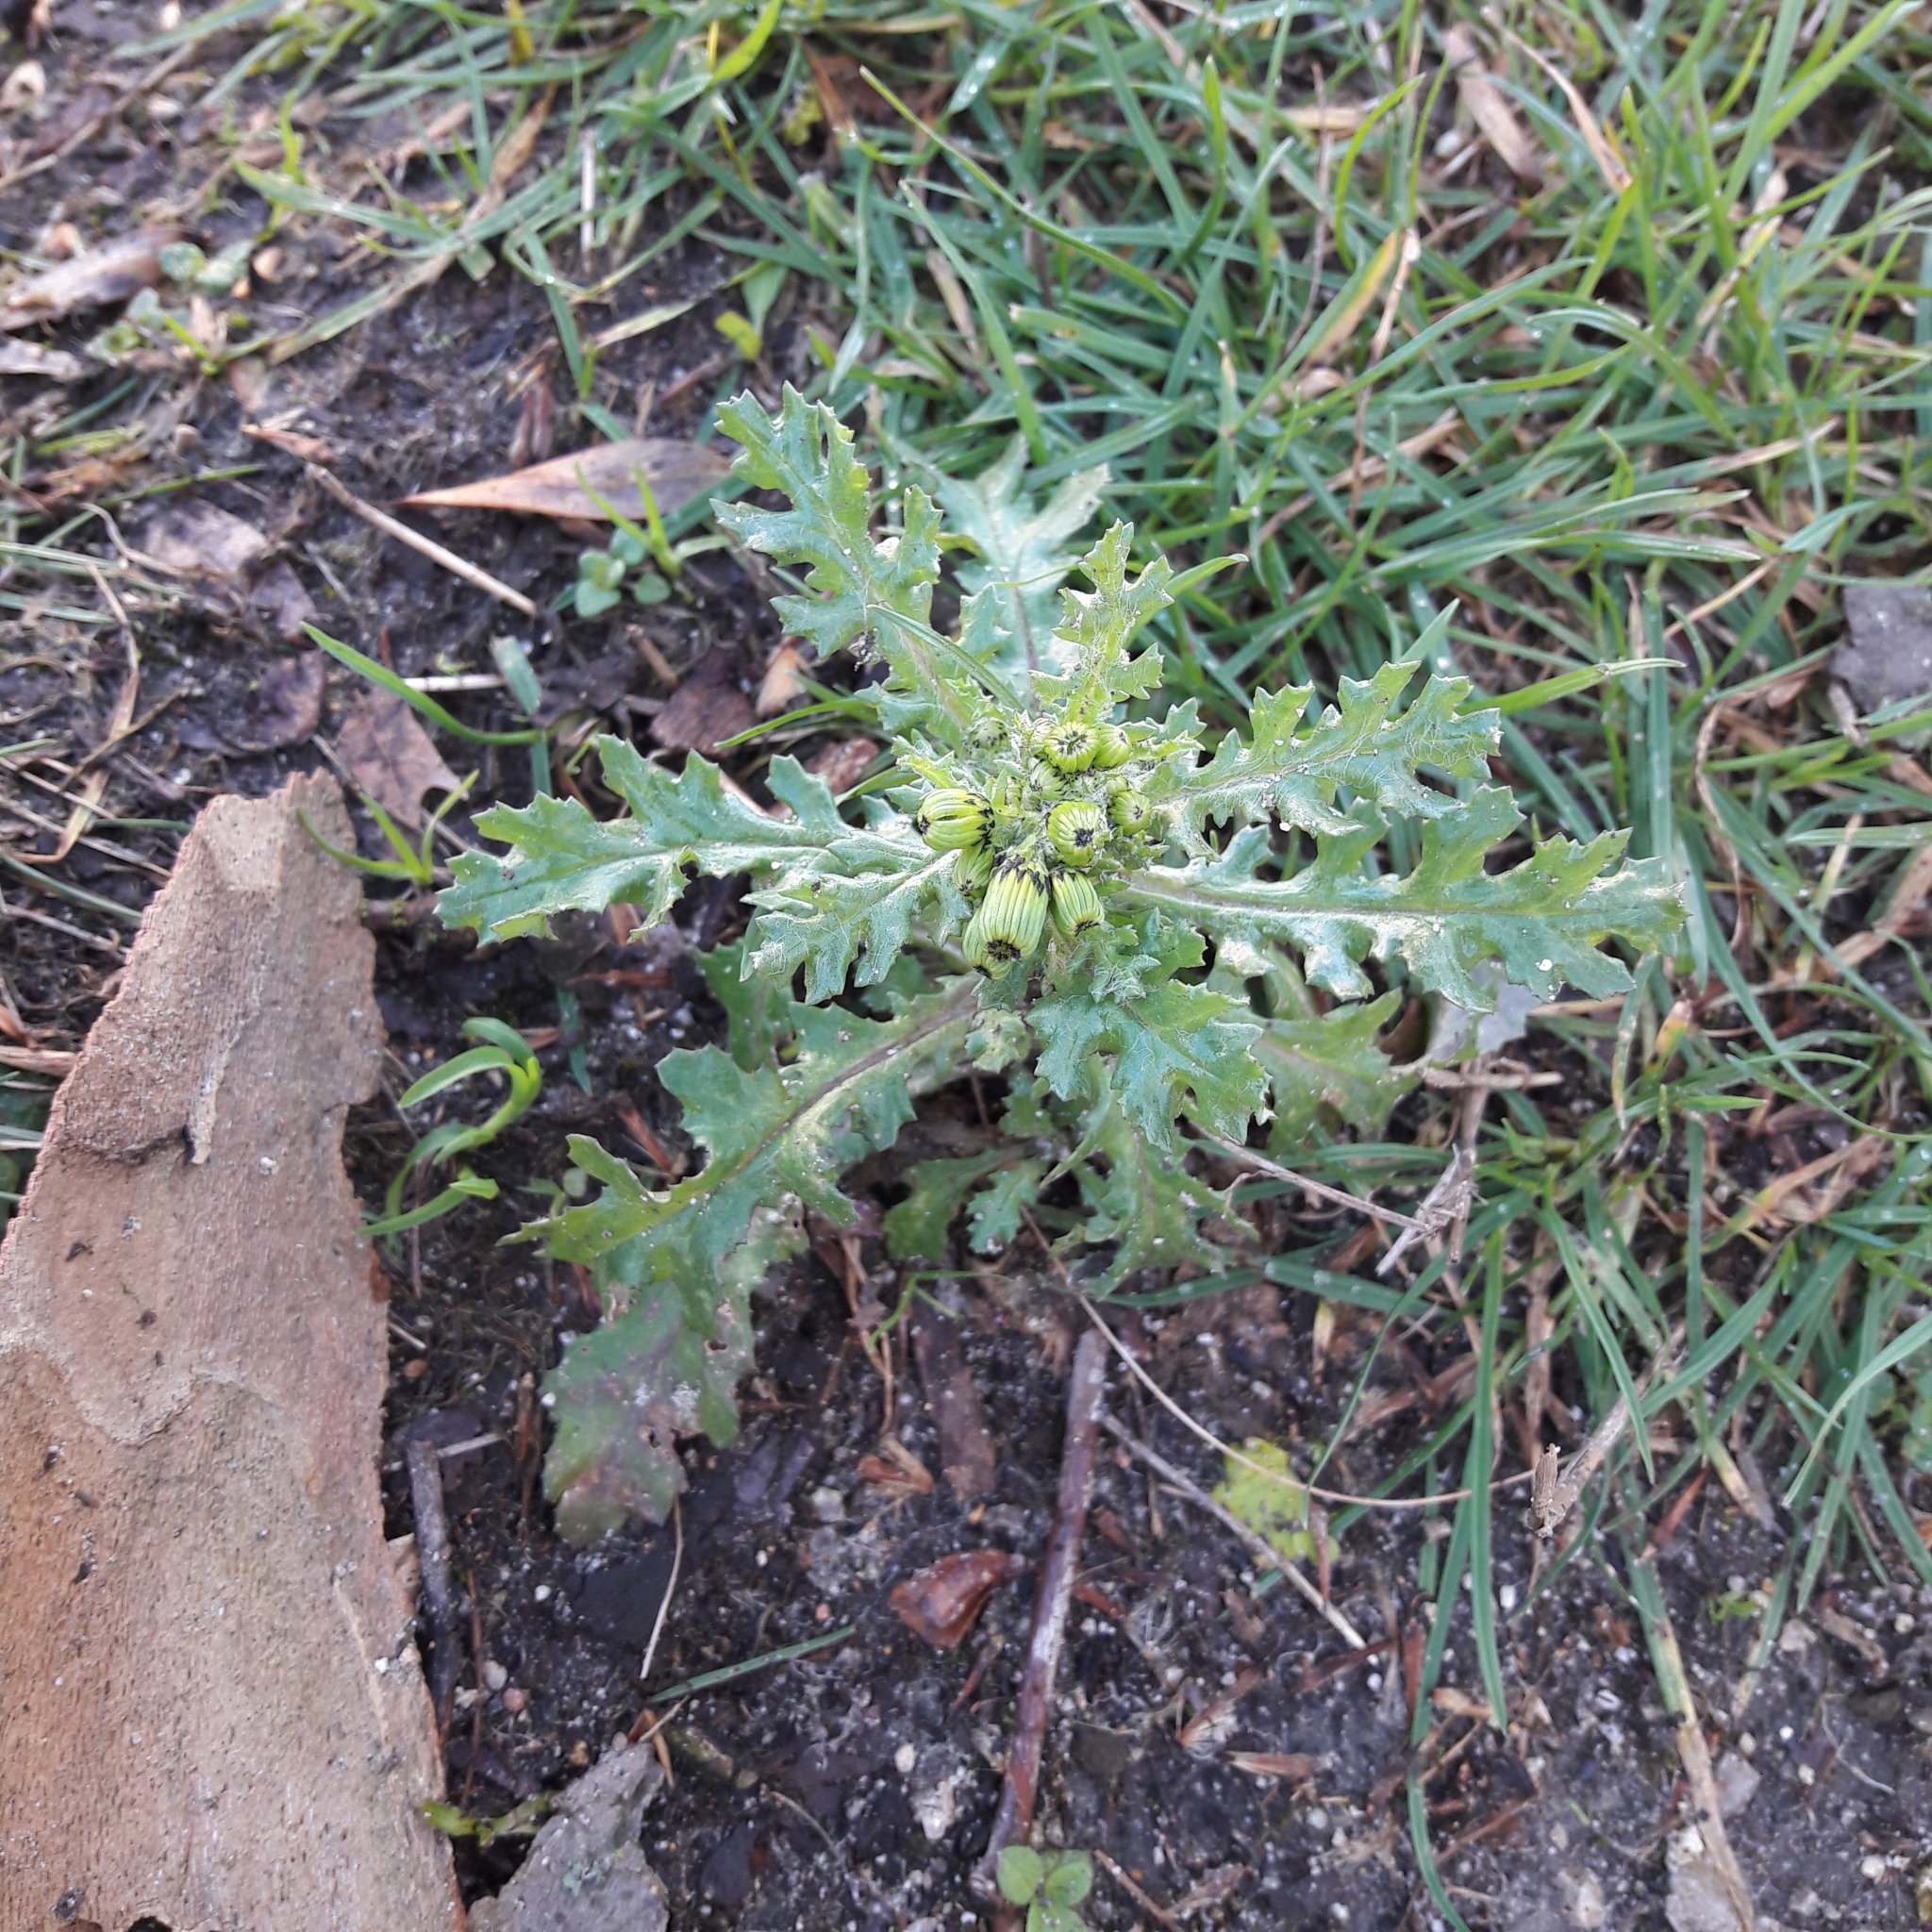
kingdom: Plantae
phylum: Tracheophyta
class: Magnoliopsida
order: Asterales
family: Asteraceae
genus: Senecio
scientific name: Senecio vulgaris
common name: Old-man-in-the-spring
